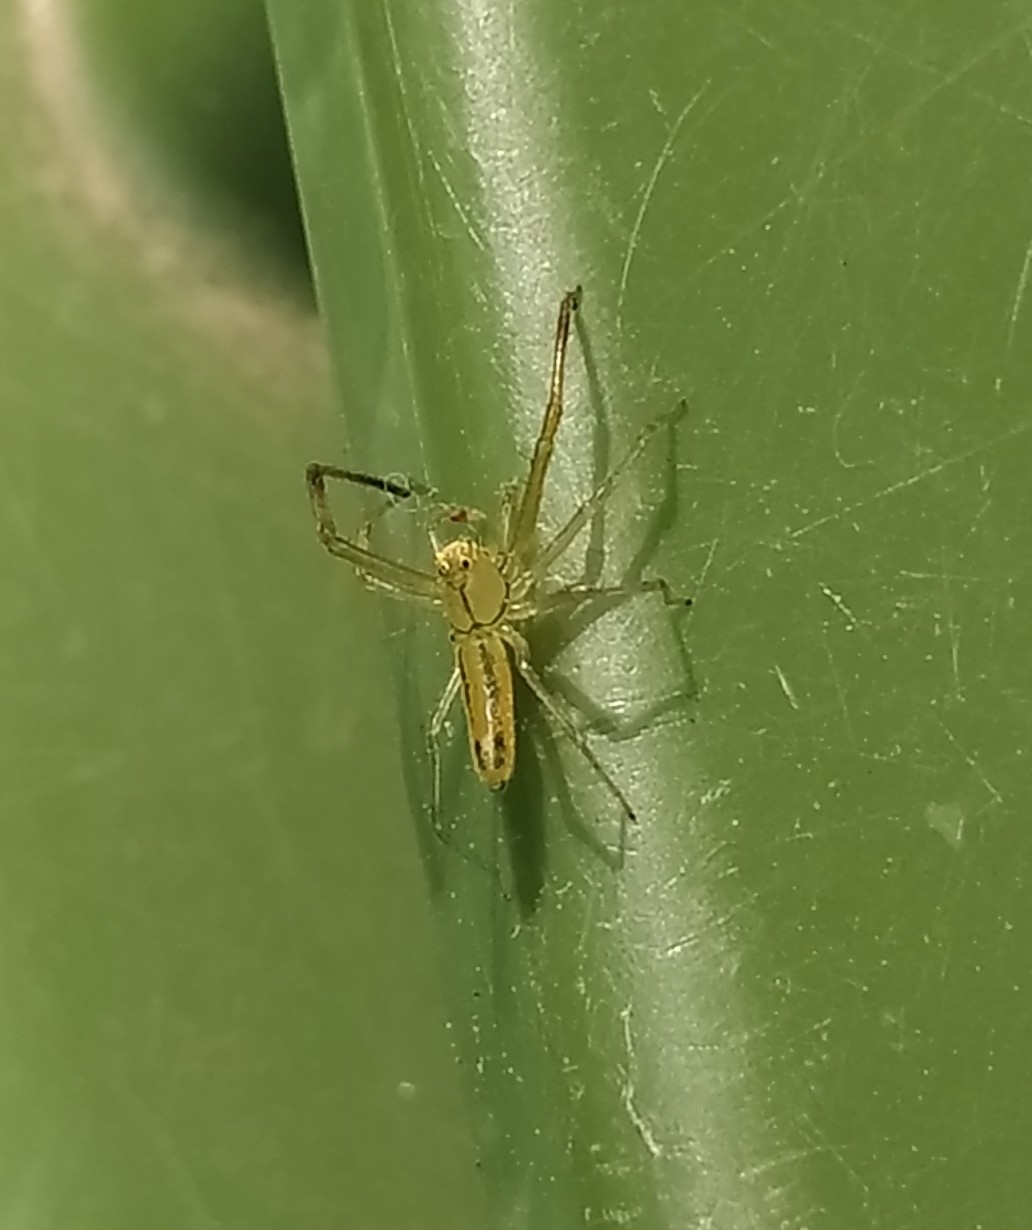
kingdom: Animalia
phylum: Arthropoda
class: Arachnida
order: Araneae
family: Salticidae
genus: Lyssomanes
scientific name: Lyssomanes pauper
